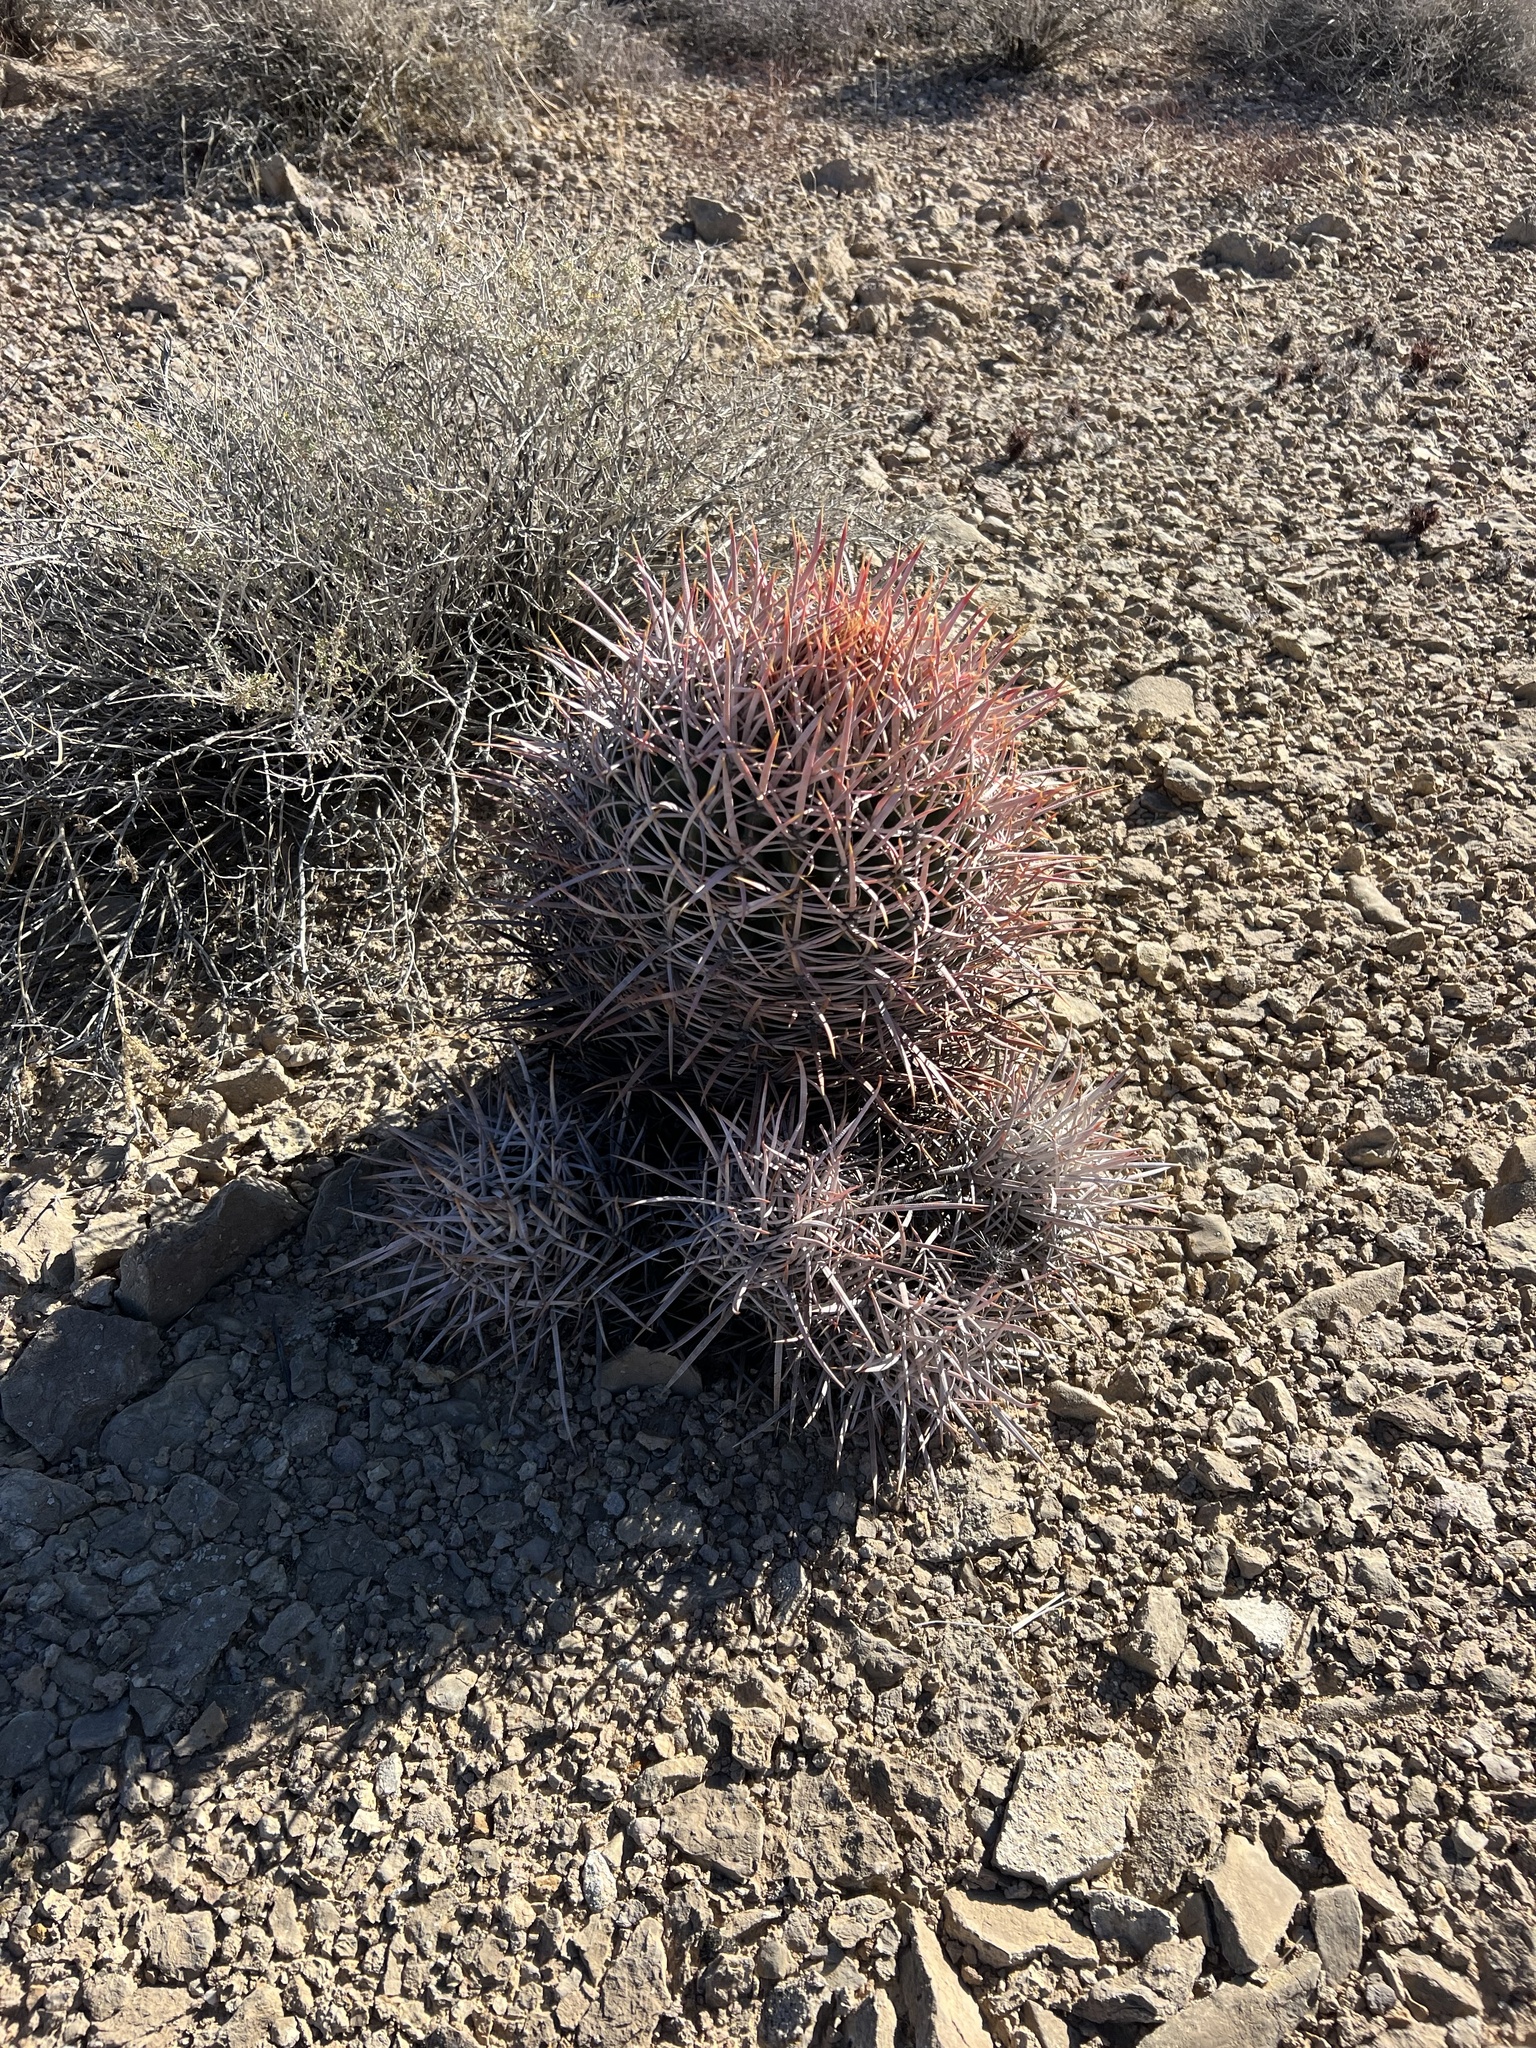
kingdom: Plantae
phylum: Tracheophyta
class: Magnoliopsida
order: Caryophyllales
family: Cactaceae
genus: Echinocactus
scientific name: Echinocactus polycephalus
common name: Cottontop cactus
